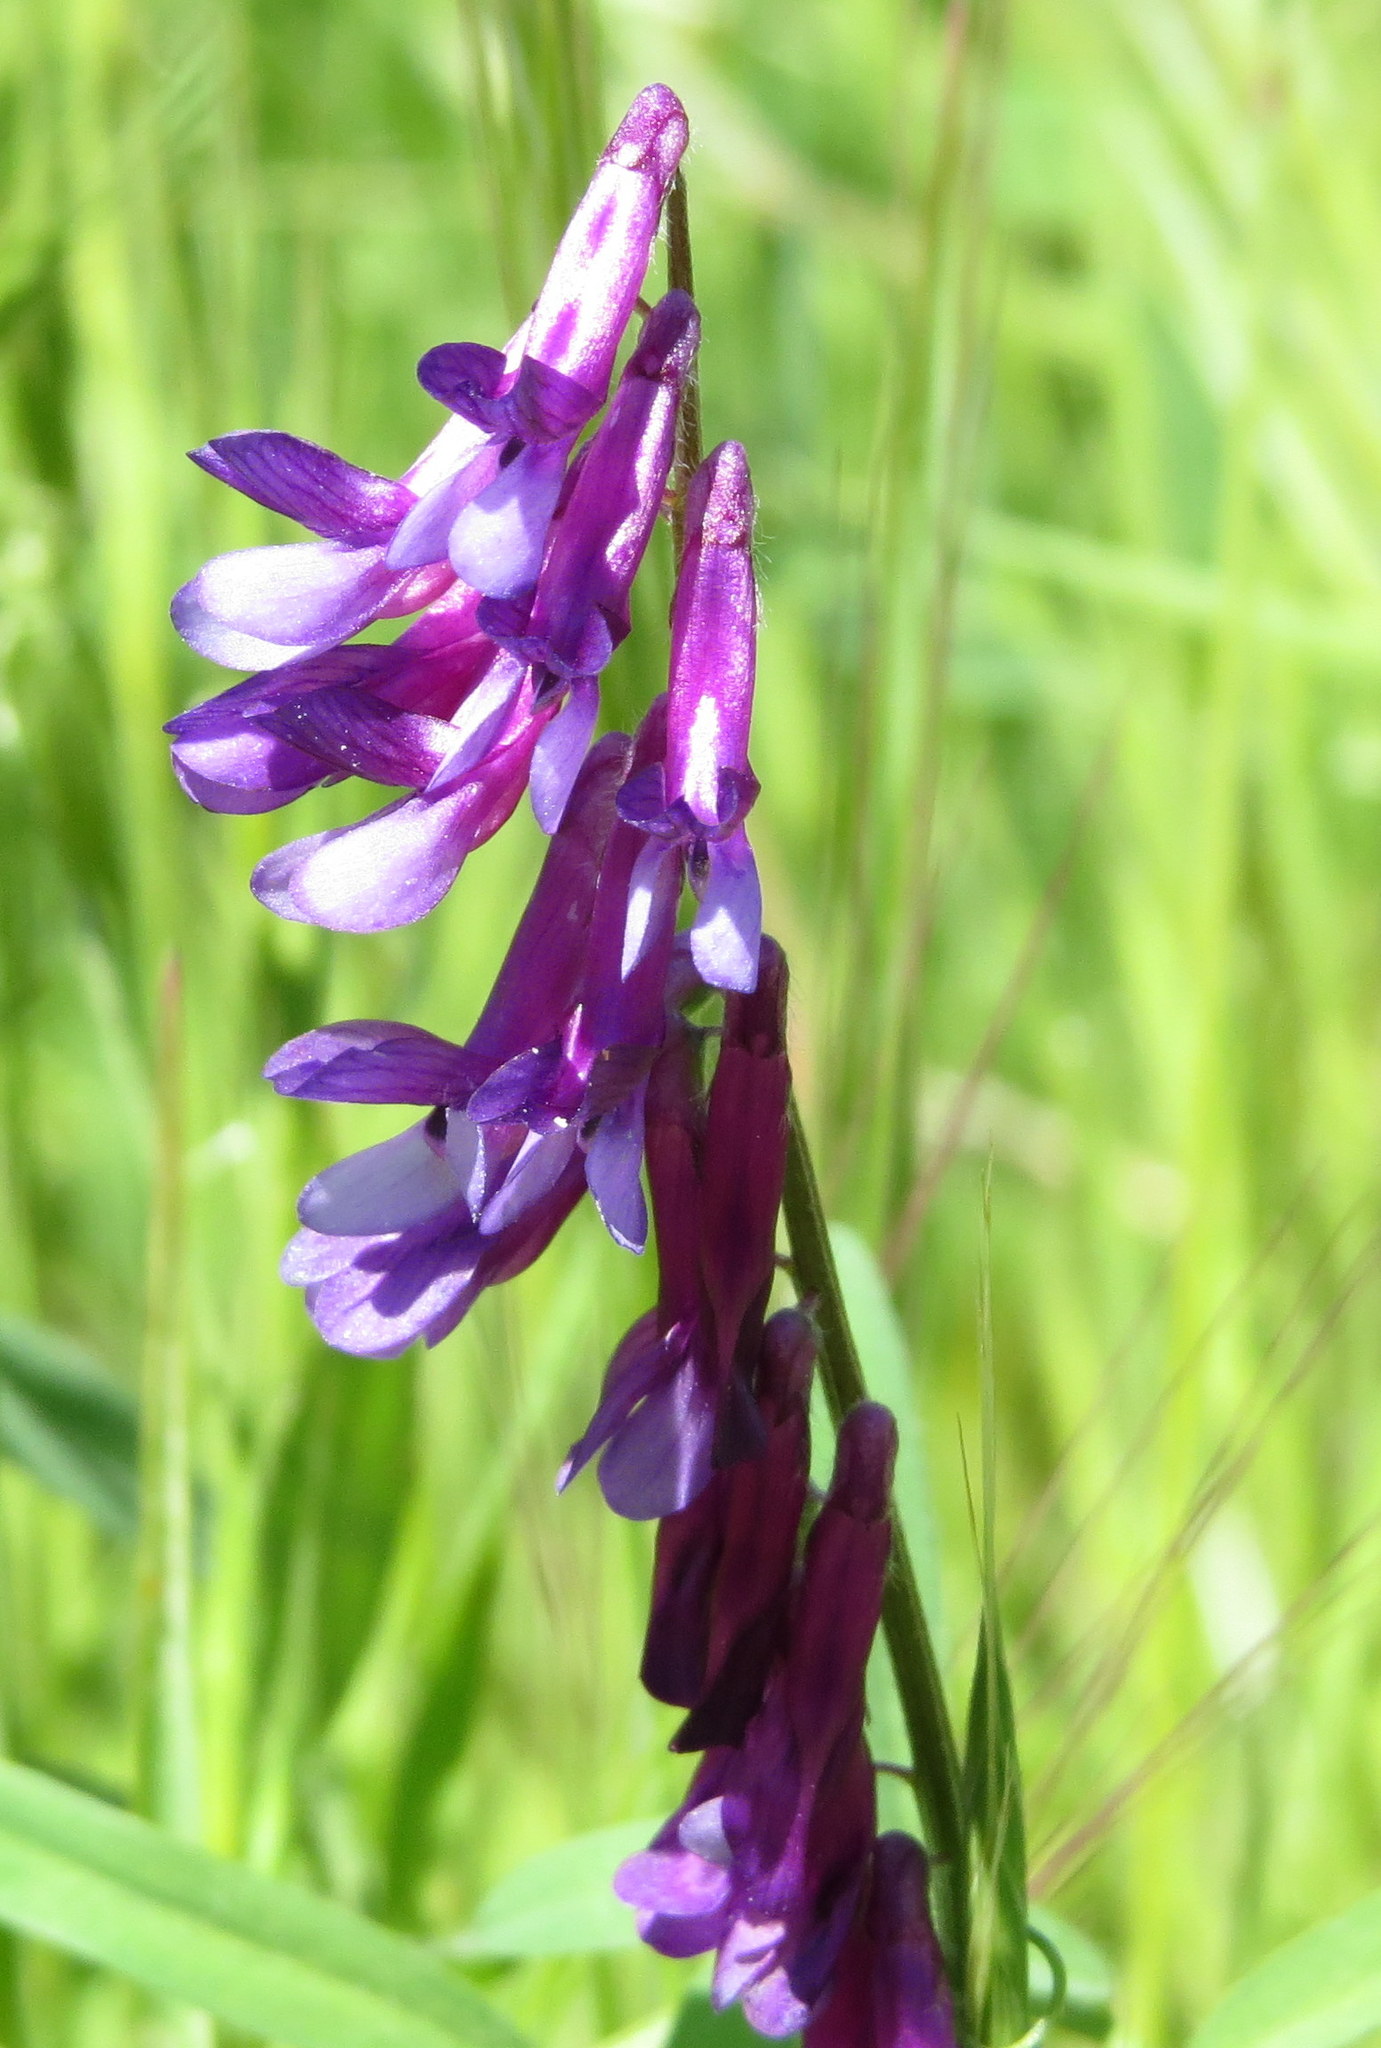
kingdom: Plantae
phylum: Tracheophyta
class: Magnoliopsida
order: Fabales
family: Fabaceae
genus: Vicia
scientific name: Vicia villosa
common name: Fodder vetch
